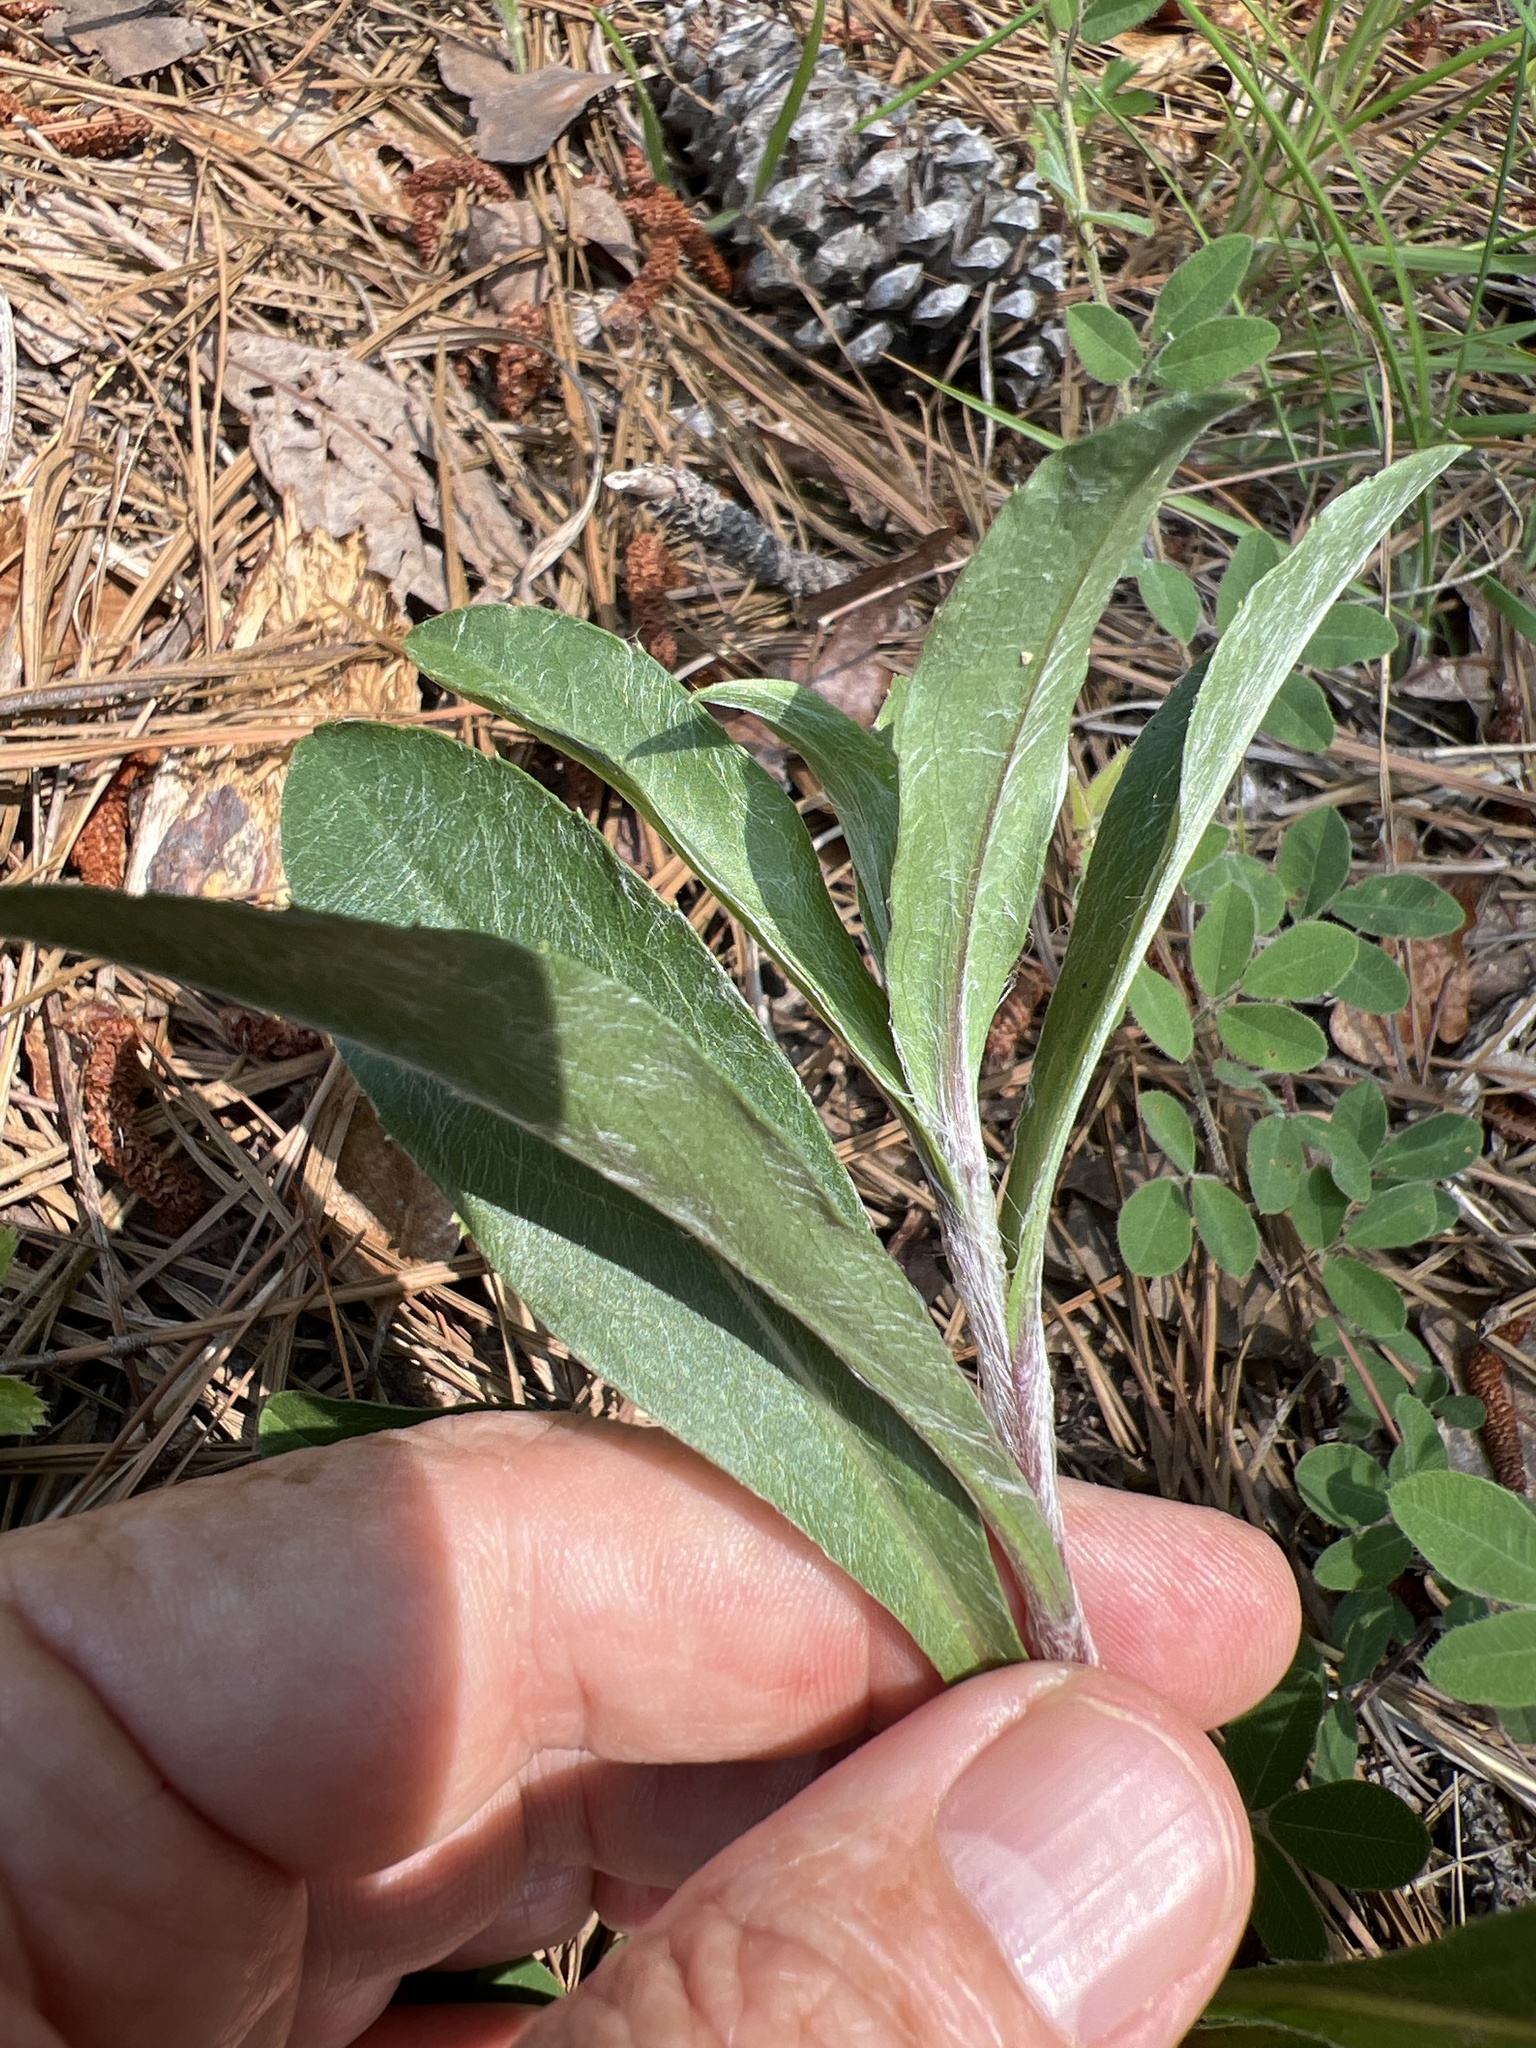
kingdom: Plantae
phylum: Tracheophyta
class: Magnoliopsida
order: Asterales
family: Asteraceae
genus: Chrysopsis
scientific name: Chrysopsis mariana
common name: Maryland golden-aster
